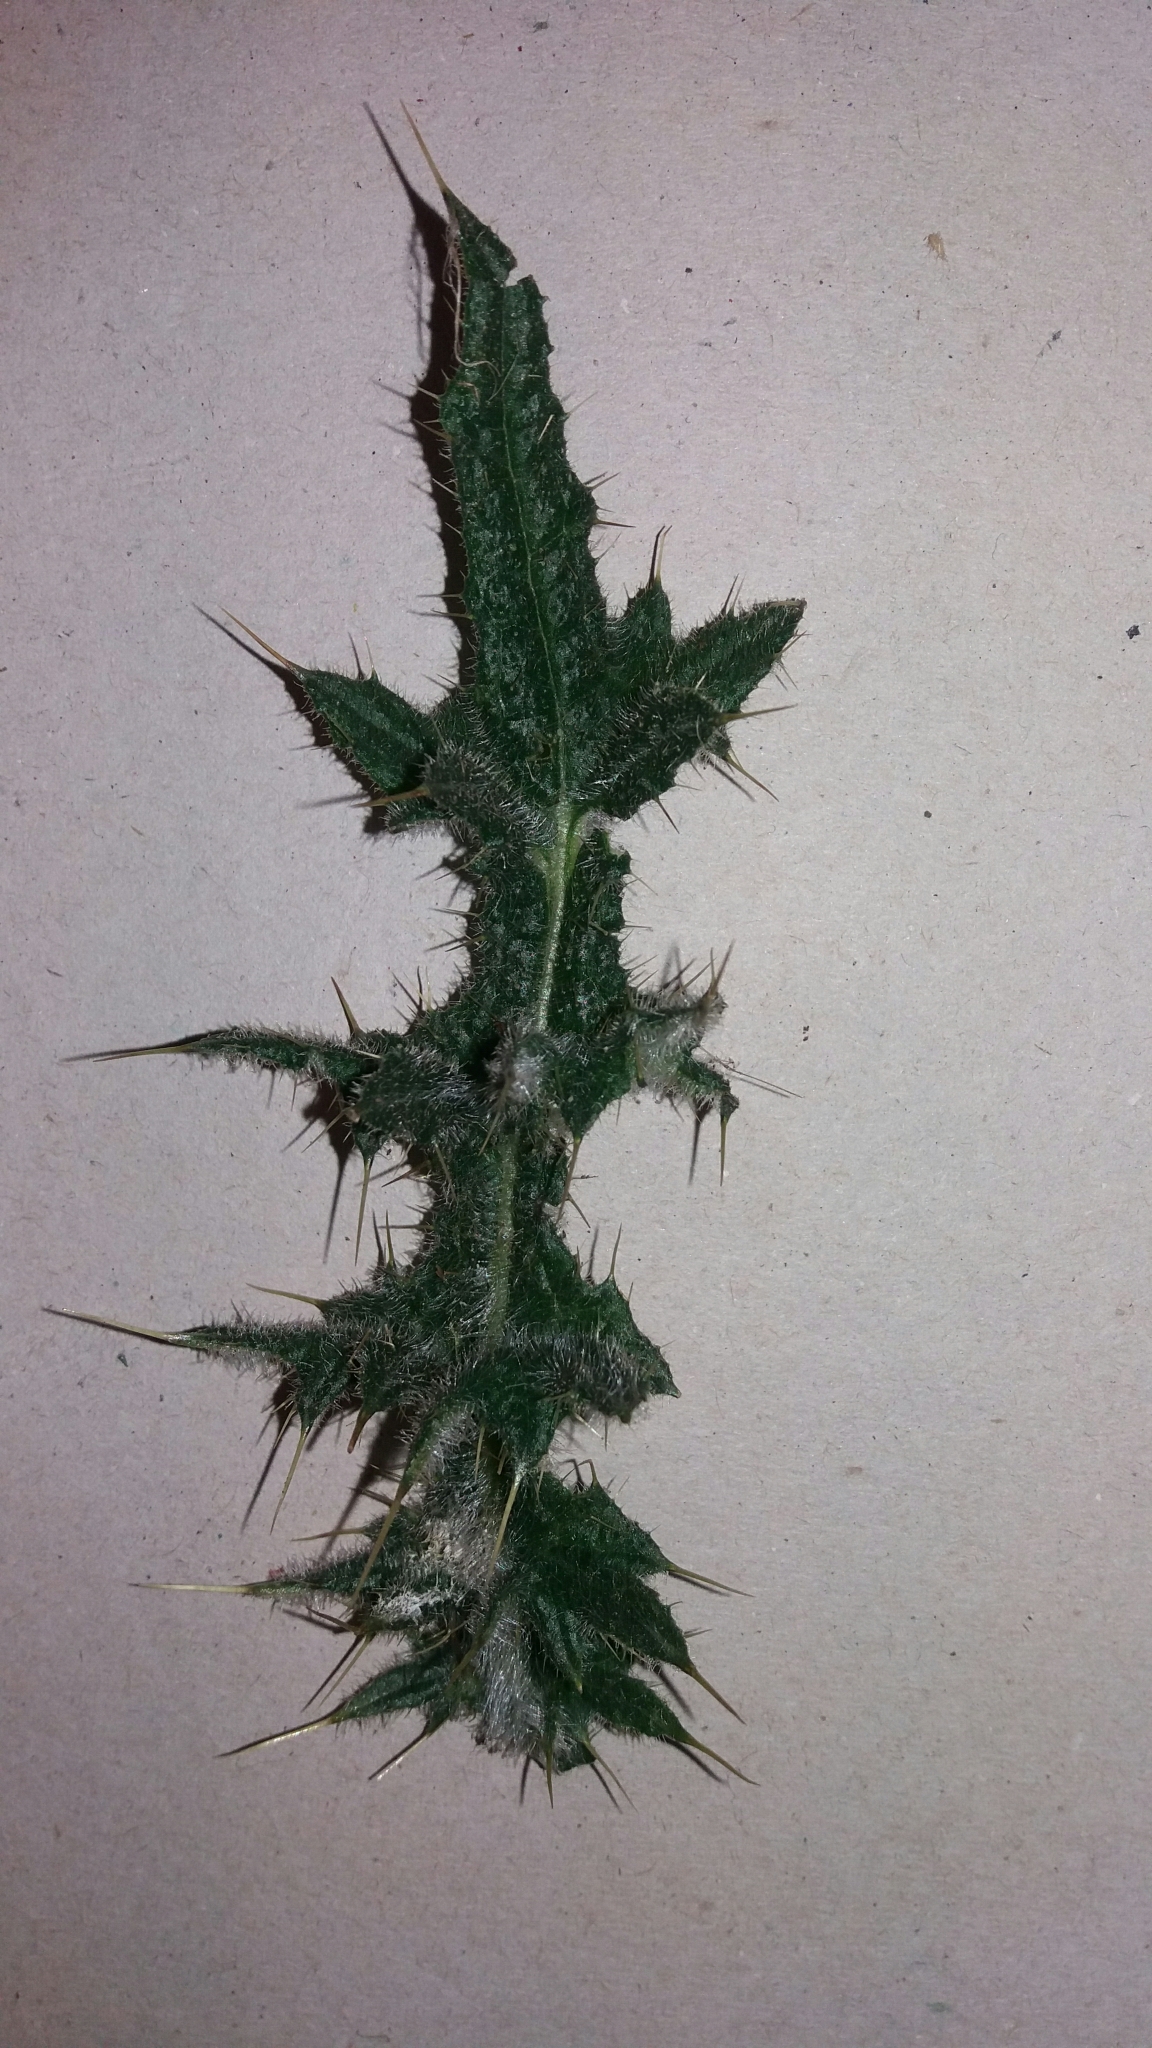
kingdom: Plantae
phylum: Tracheophyta
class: Magnoliopsida
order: Asterales
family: Asteraceae
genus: Cirsium
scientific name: Cirsium vulgare
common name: Bull thistle
